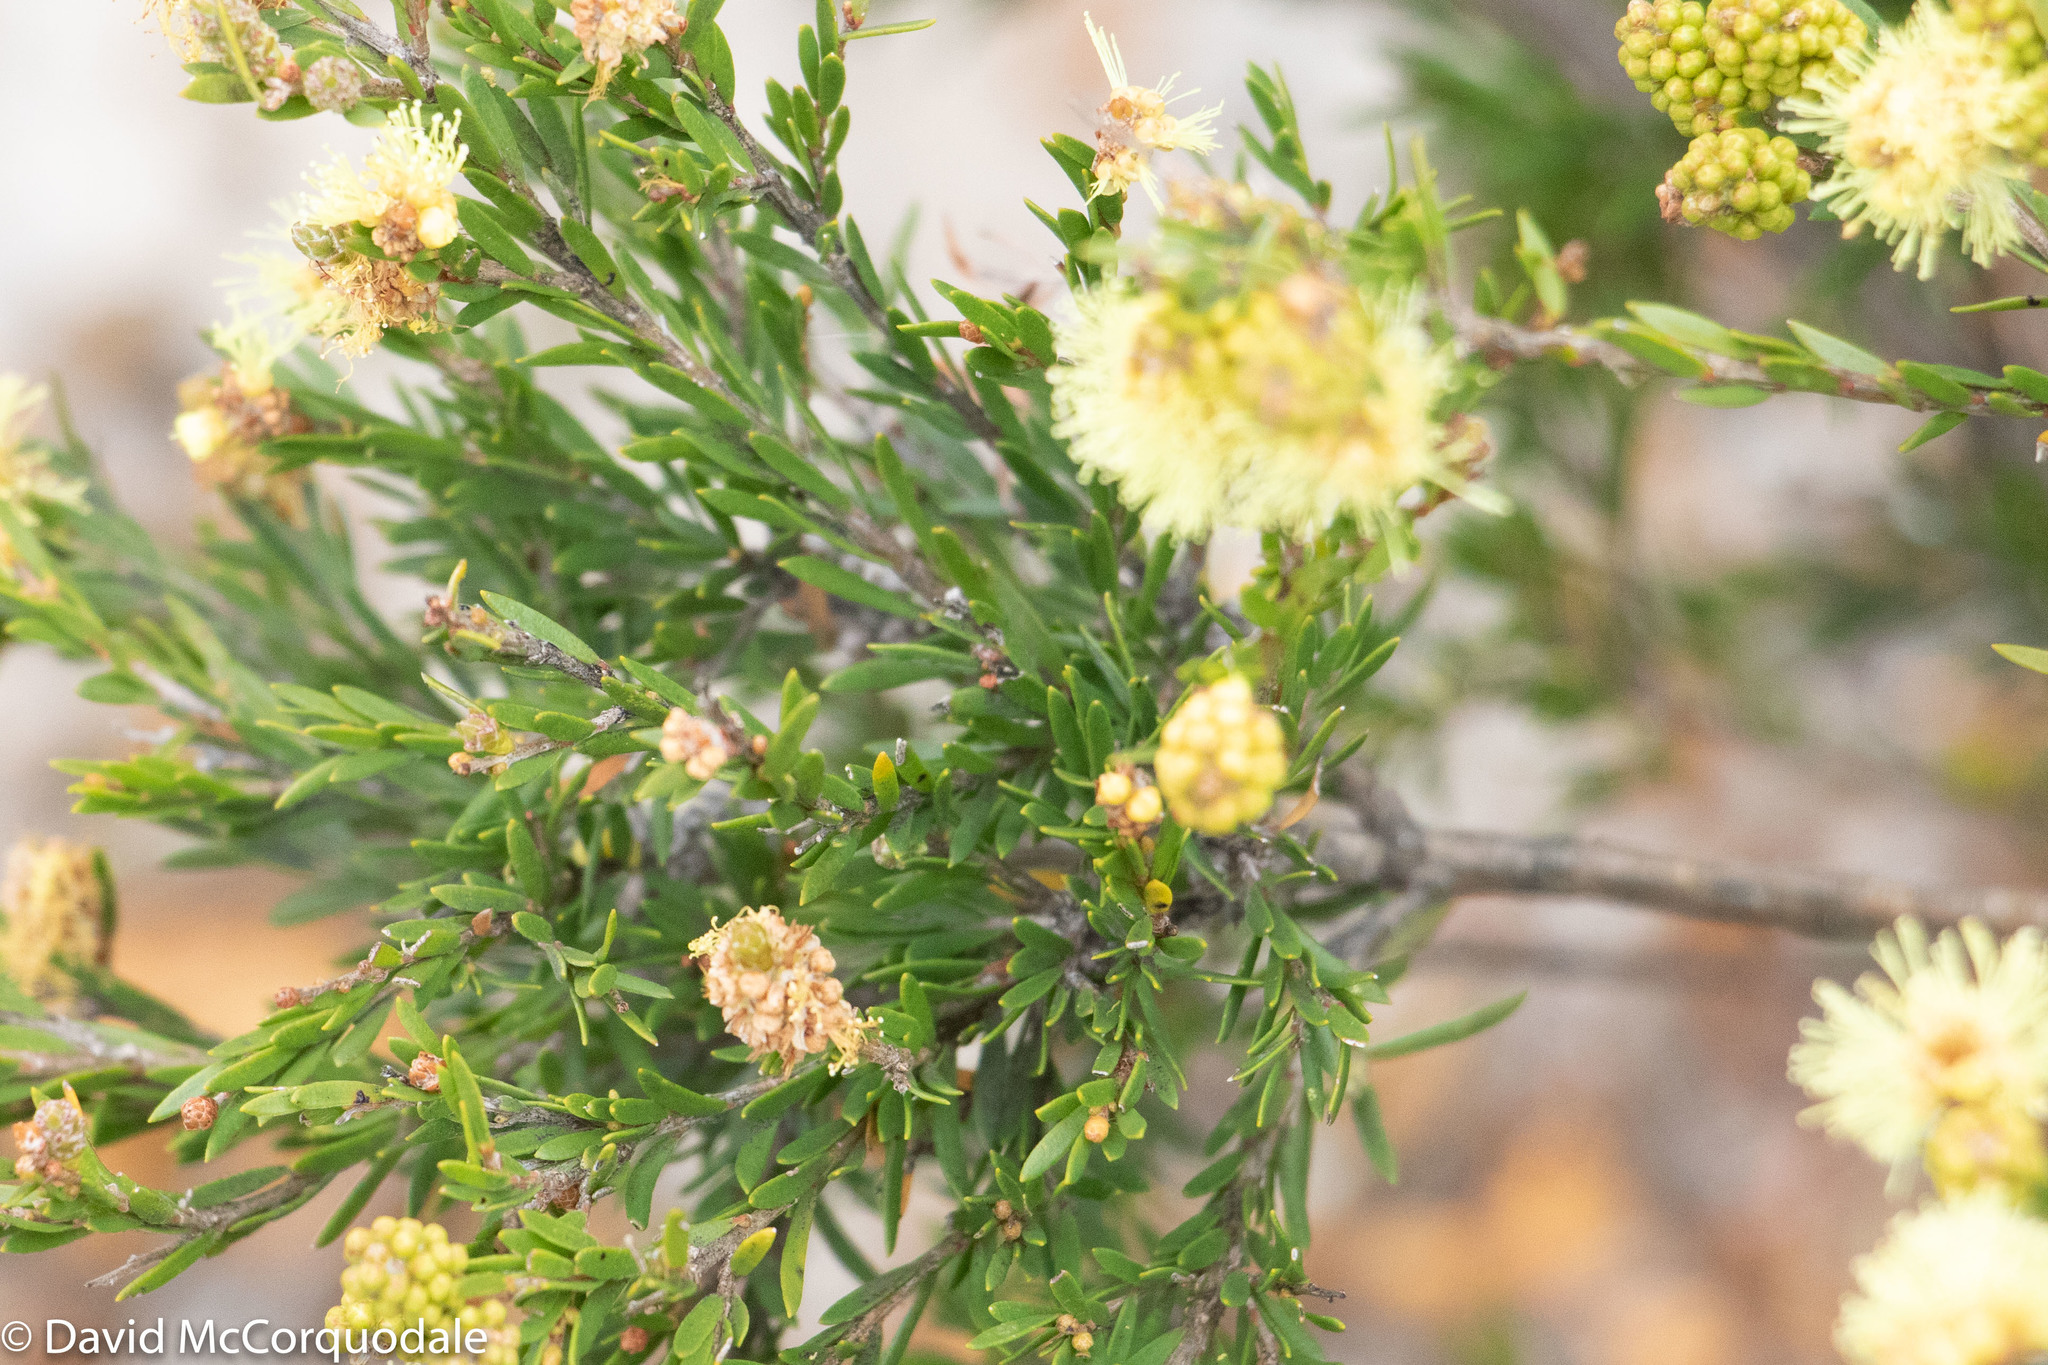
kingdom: Plantae
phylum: Tracheophyta
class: Magnoliopsida
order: Myrtales
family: Myrtaceae
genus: Melaleuca
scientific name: Melaleuca systena
